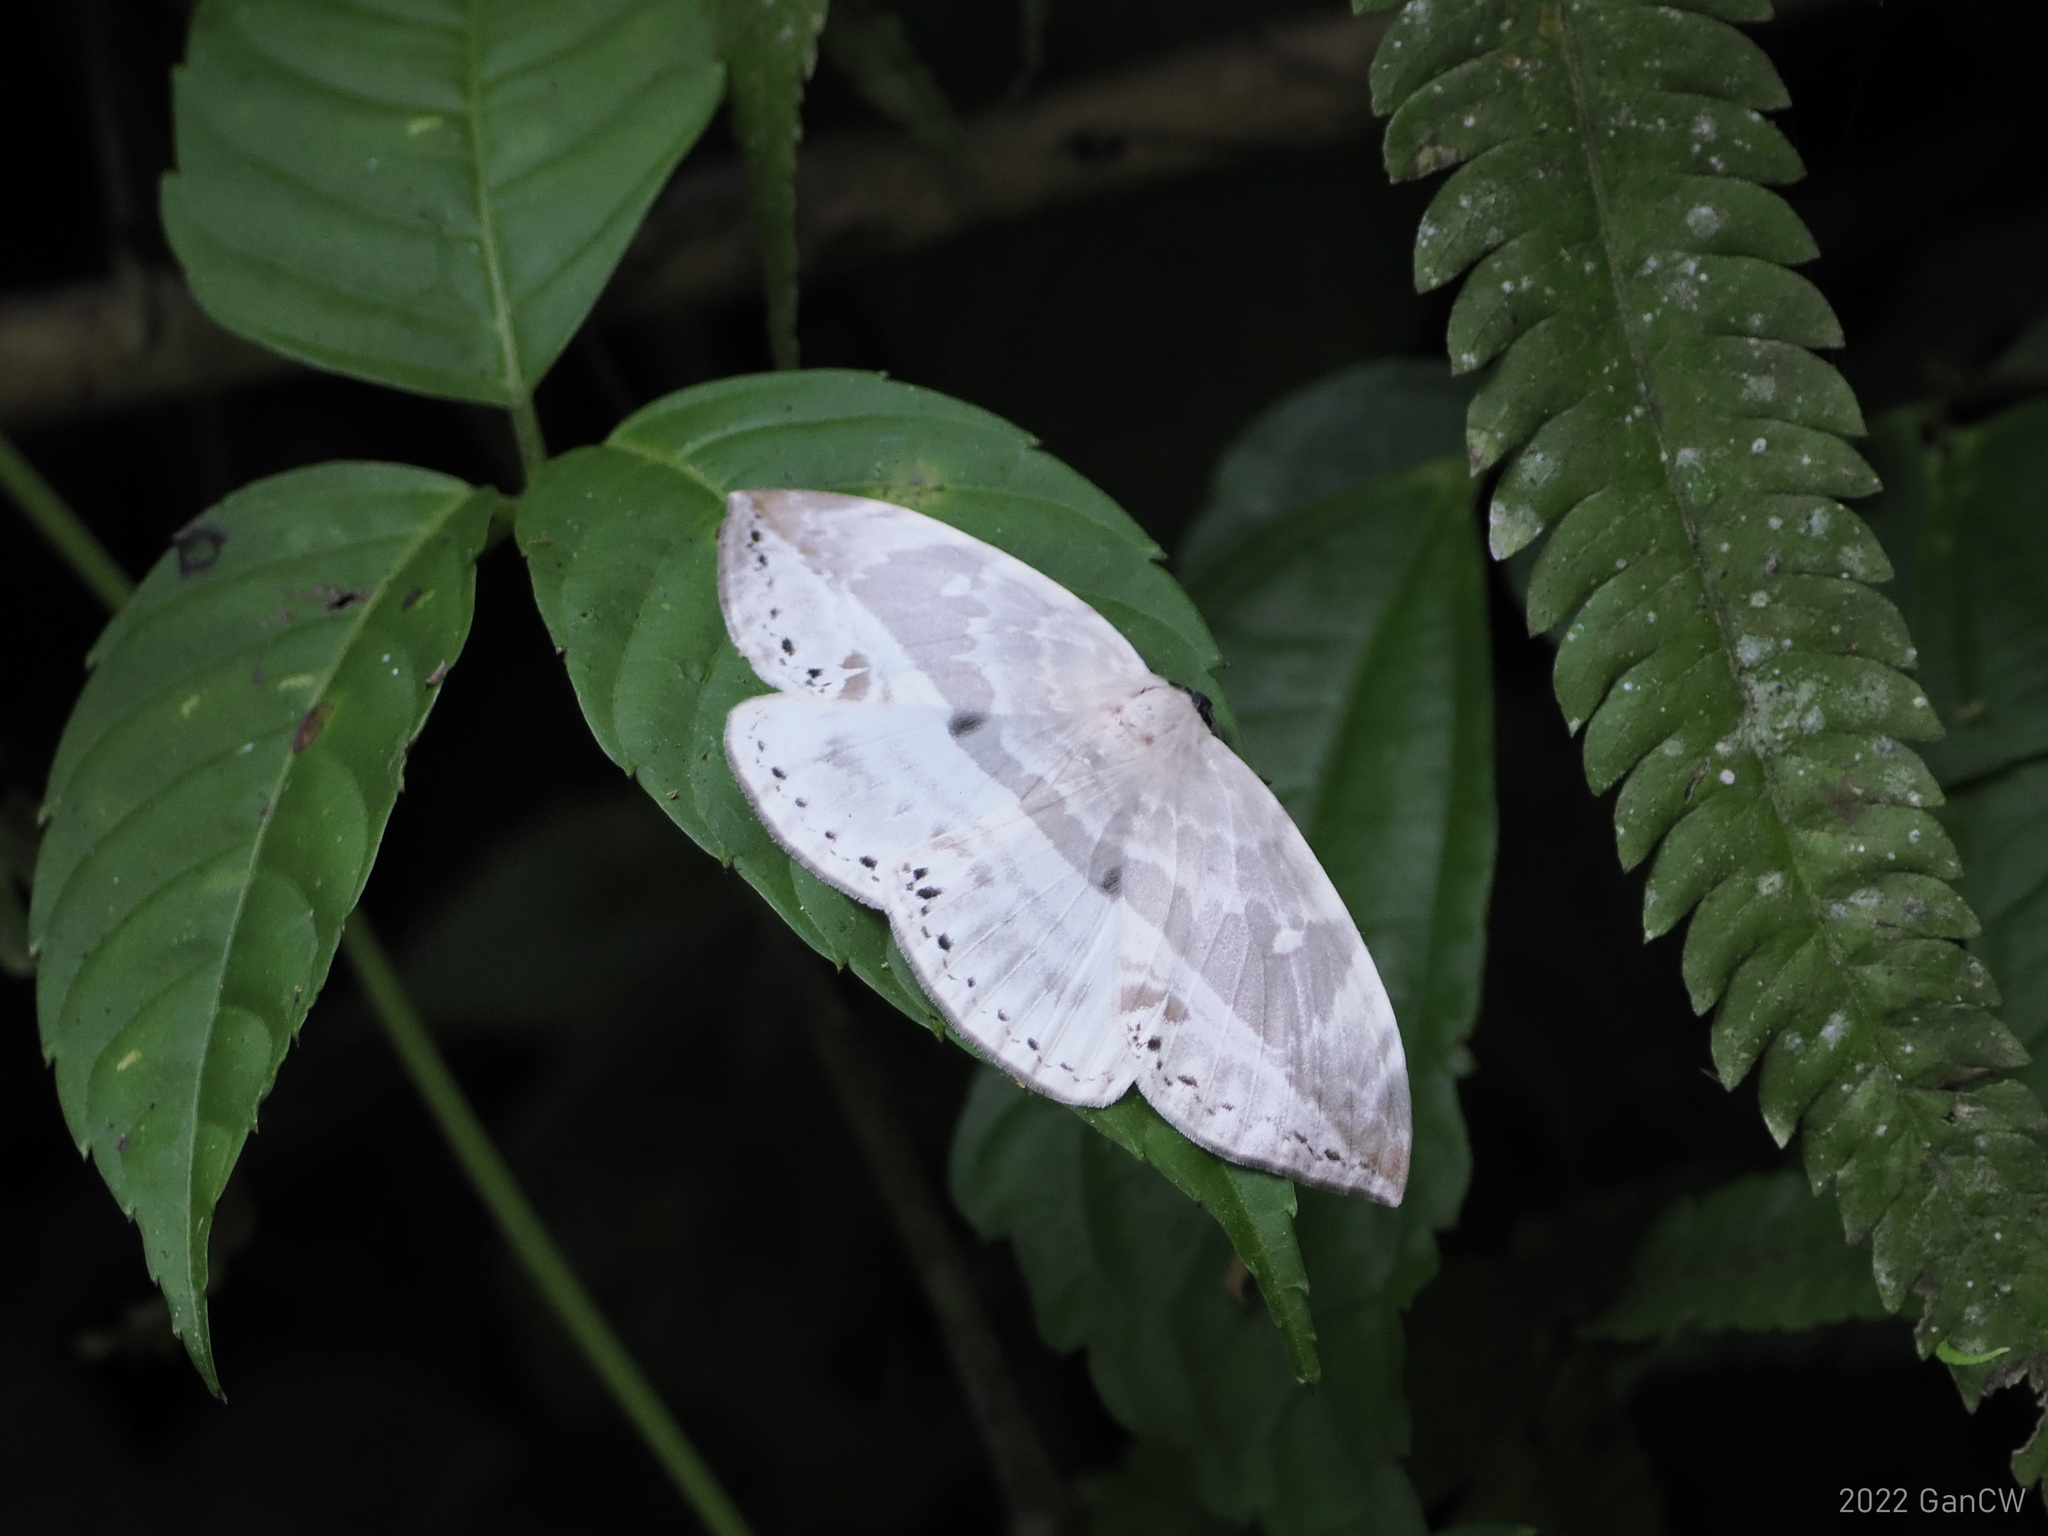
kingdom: Animalia
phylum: Arthropoda
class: Insecta
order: Lepidoptera
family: Drepanidae
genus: Cyclidia
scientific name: Cyclidia substigmaria
